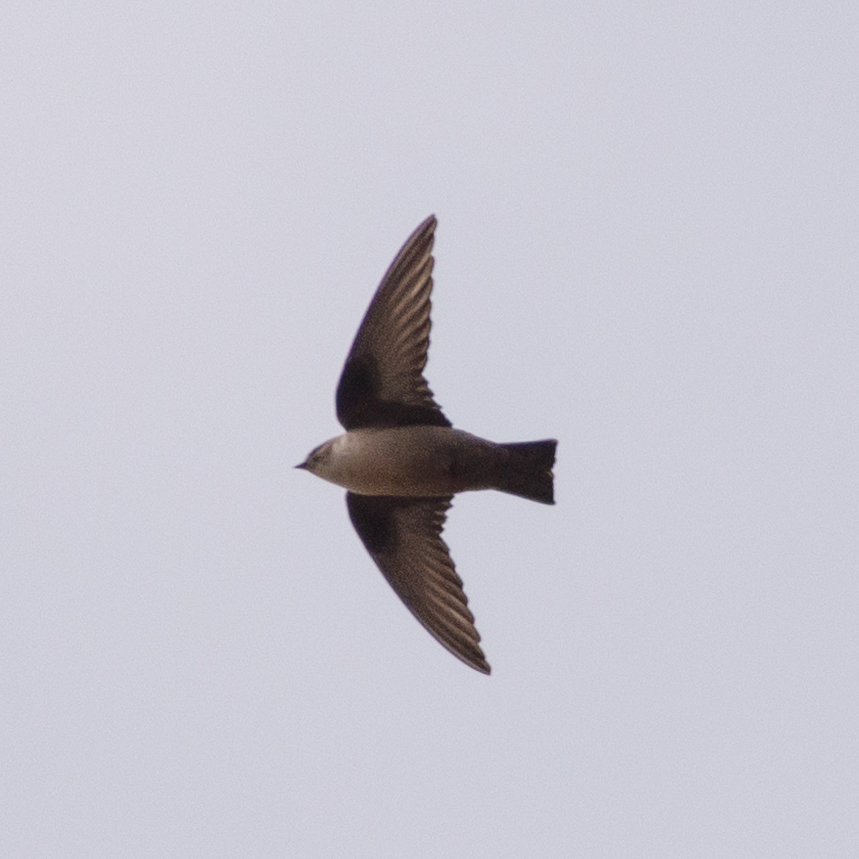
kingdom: Animalia
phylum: Chordata
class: Aves
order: Passeriformes
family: Hirundinidae
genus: Ptyonoprogne
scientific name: Ptyonoprogne rupestris
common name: Eurasian crag martin
